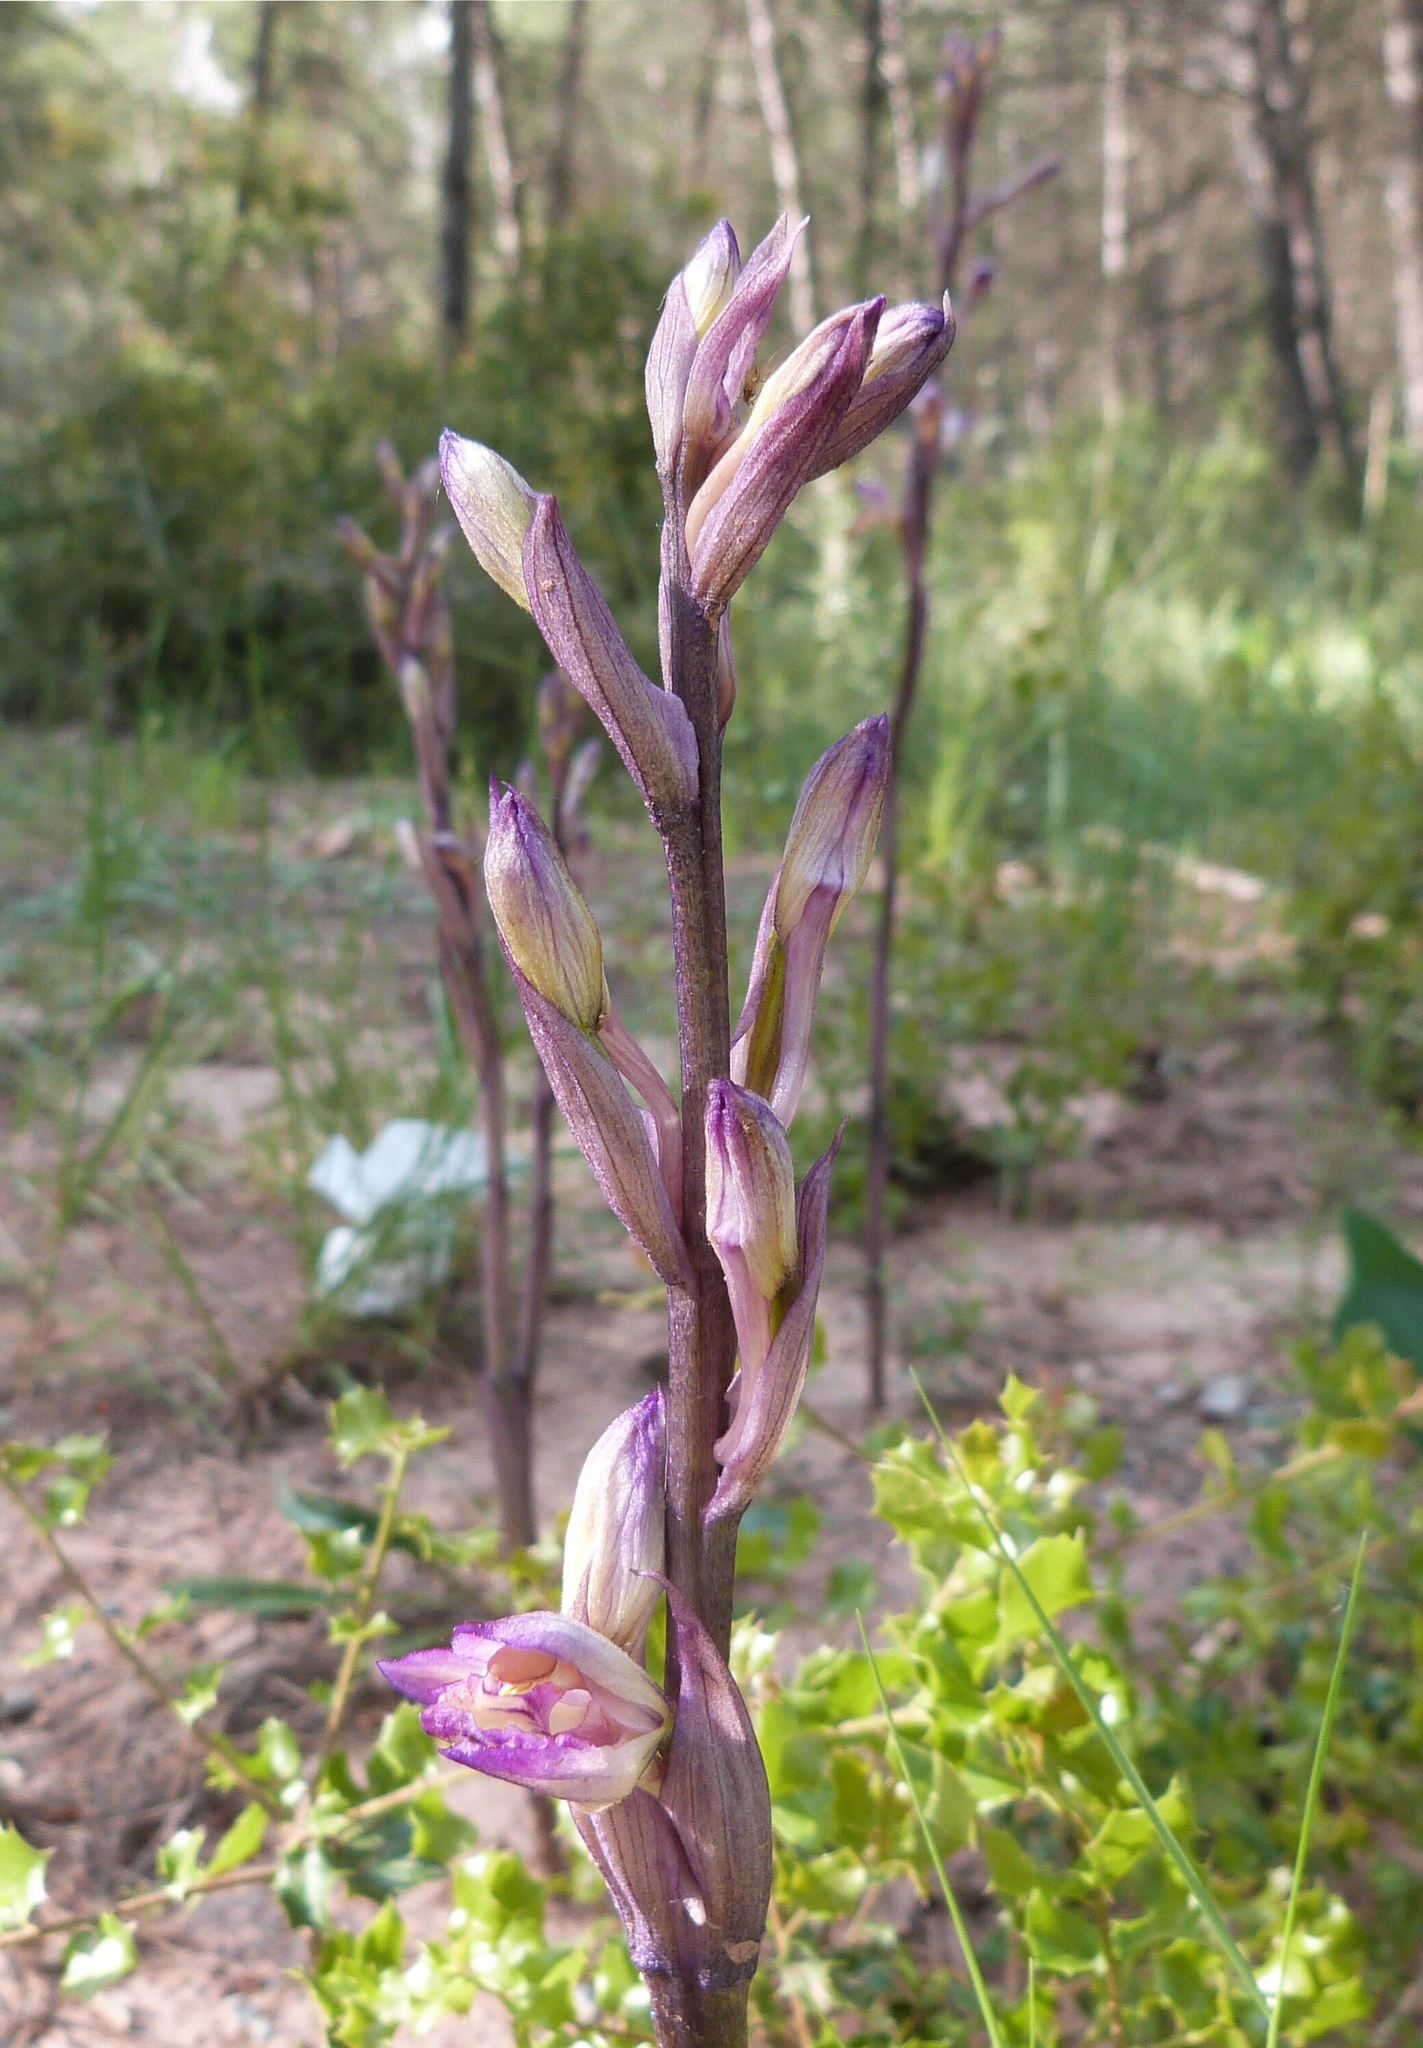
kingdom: Plantae
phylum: Tracheophyta
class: Liliopsida
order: Asparagales
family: Orchidaceae
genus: Limodorum
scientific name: Limodorum abortivum
